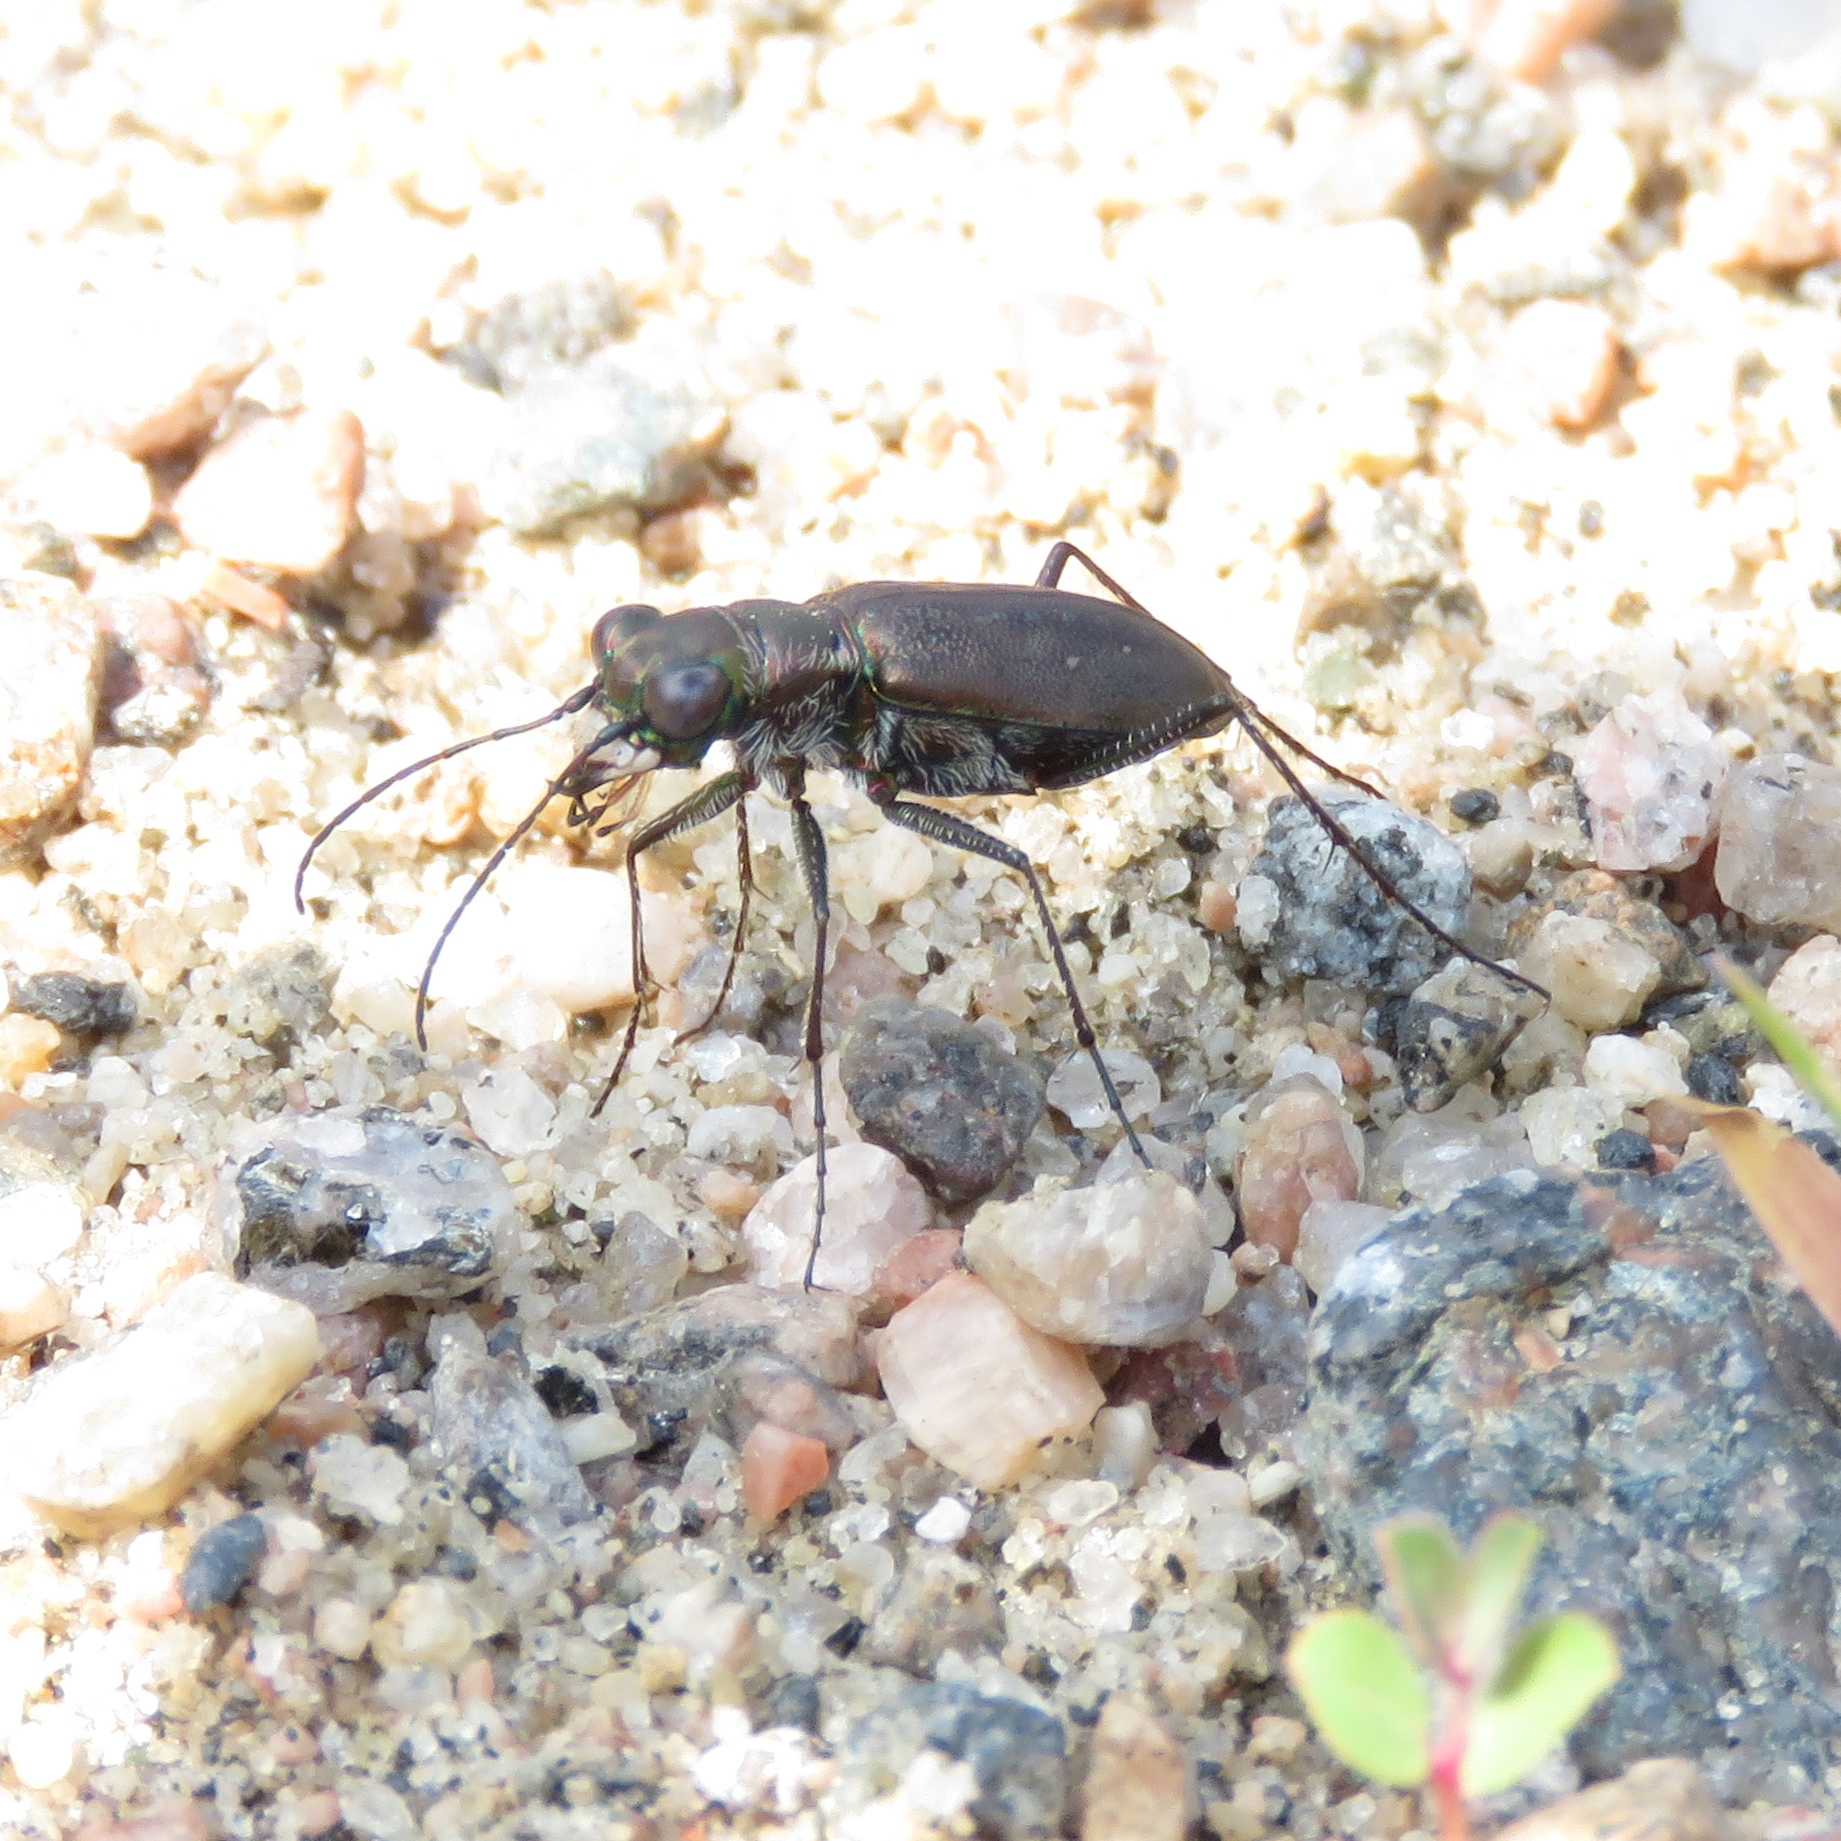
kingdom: Animalia
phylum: Arthropoda
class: Insecta
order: Coleoptera
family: Carabidae
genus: Cicindela
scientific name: Cicindela punctulata
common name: Punctured tiger beetle
